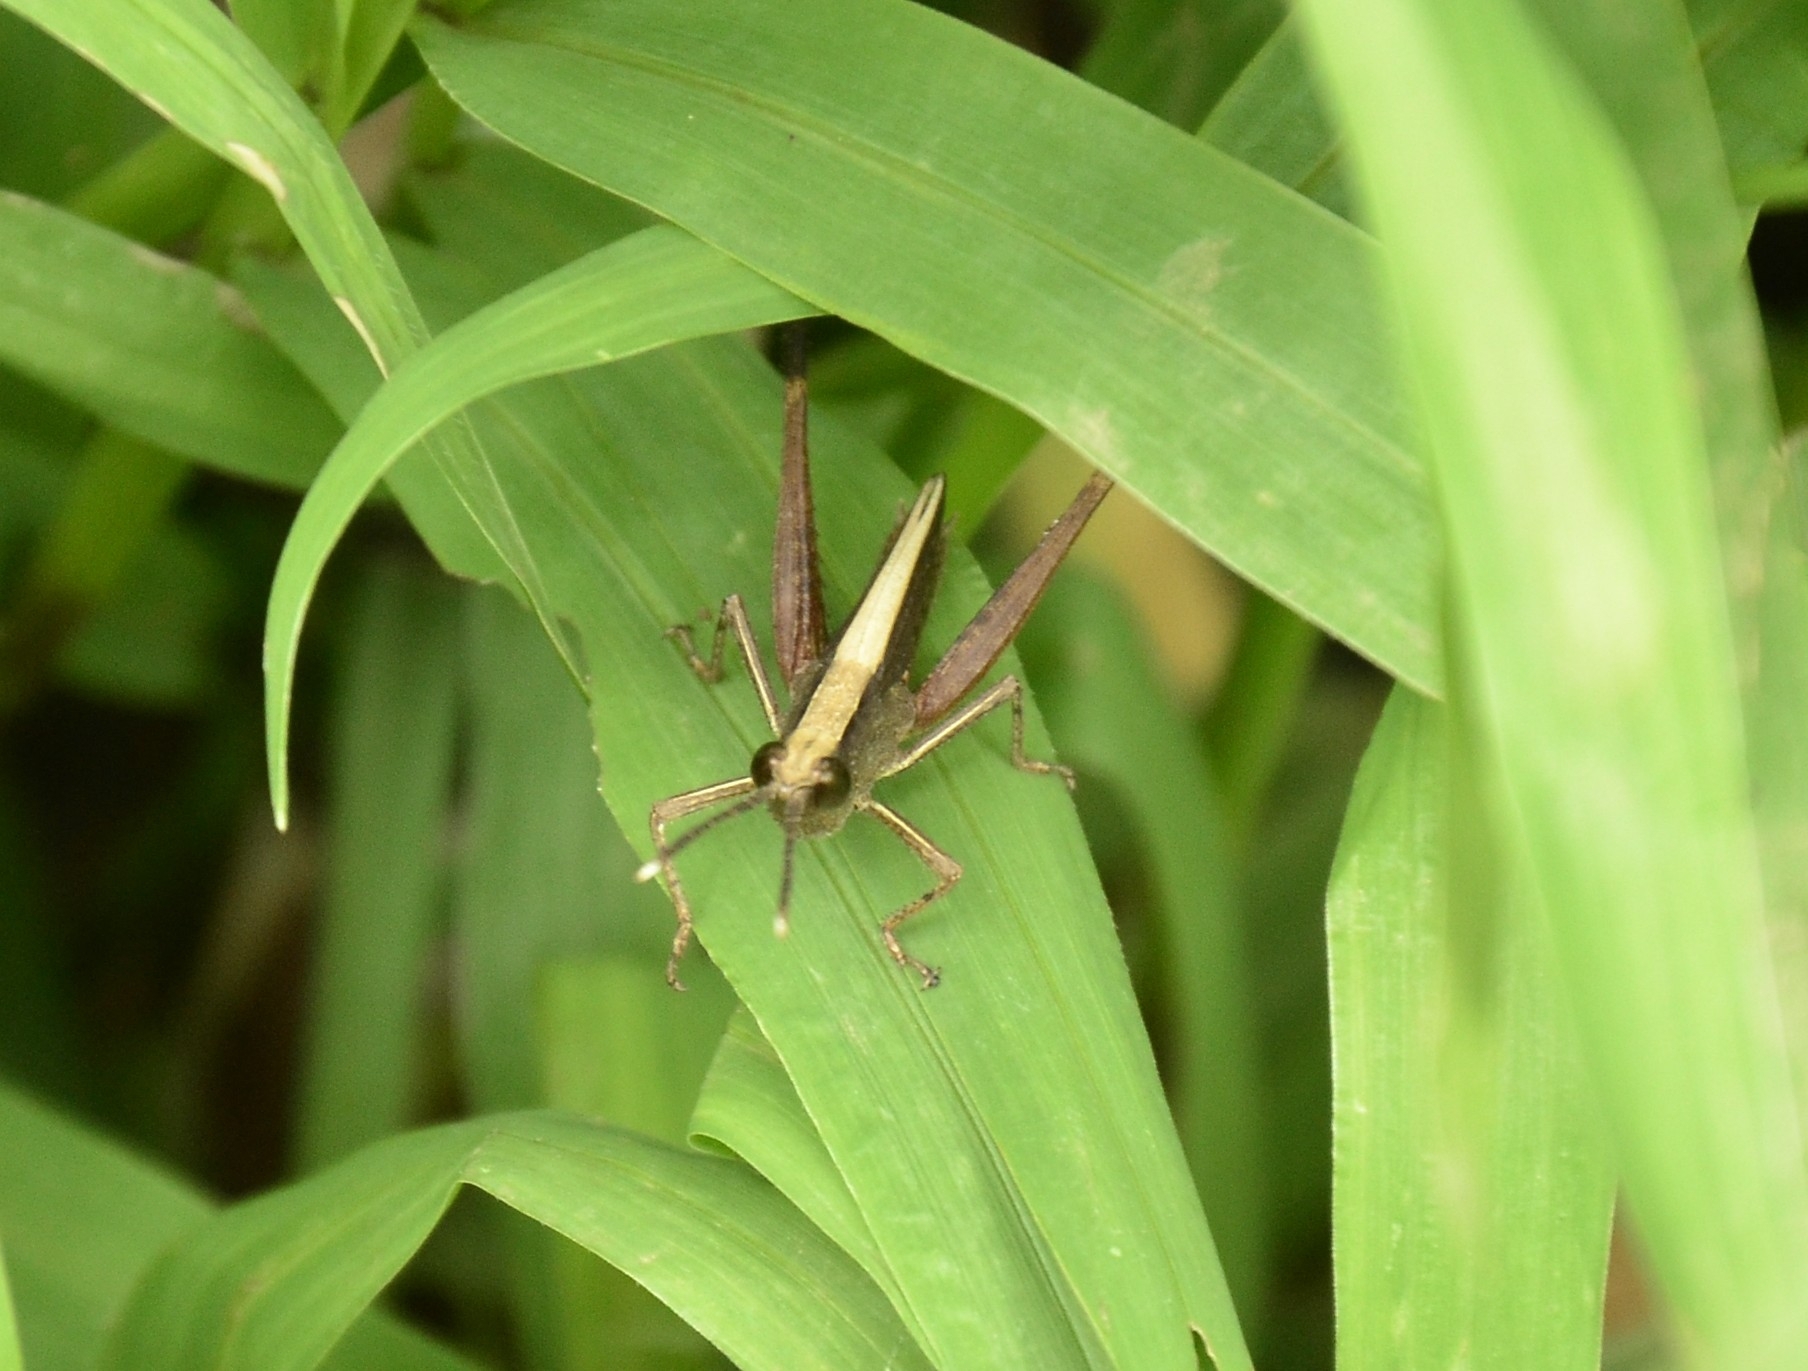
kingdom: Animalia
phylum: Arthropoda
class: Insecta
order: Orthoptera
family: Acrididae
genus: Phlaeoba
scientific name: Phlaeoba antennata
